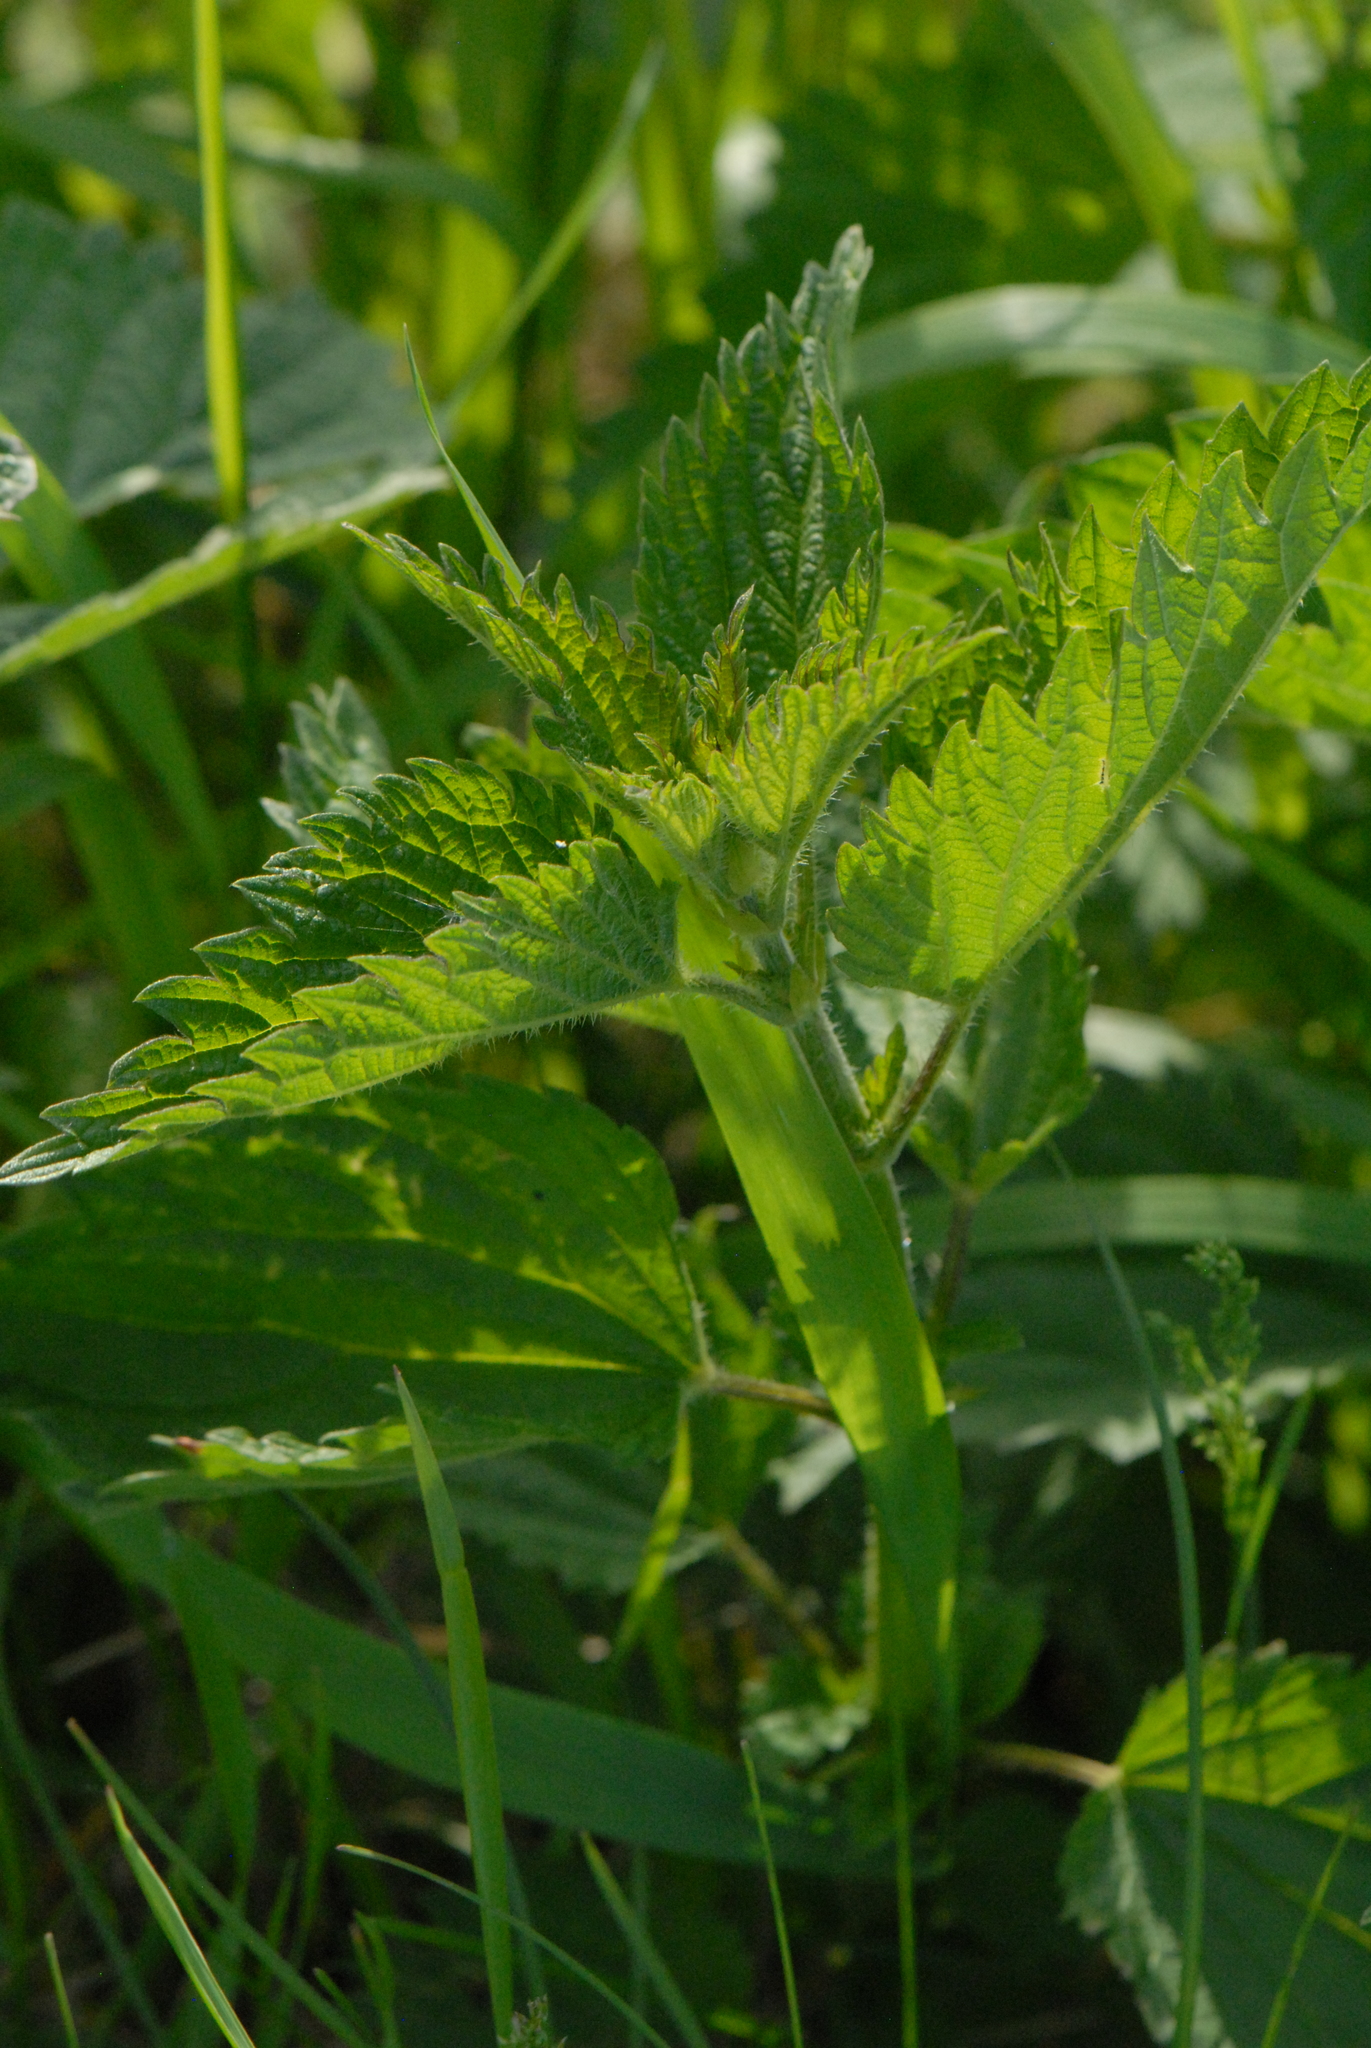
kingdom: Plantae
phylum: Tracheophyta
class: Magnoliopsida
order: Rosales
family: Urticaceae
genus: Urtica
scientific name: Urtica dioica
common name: Common nettle
